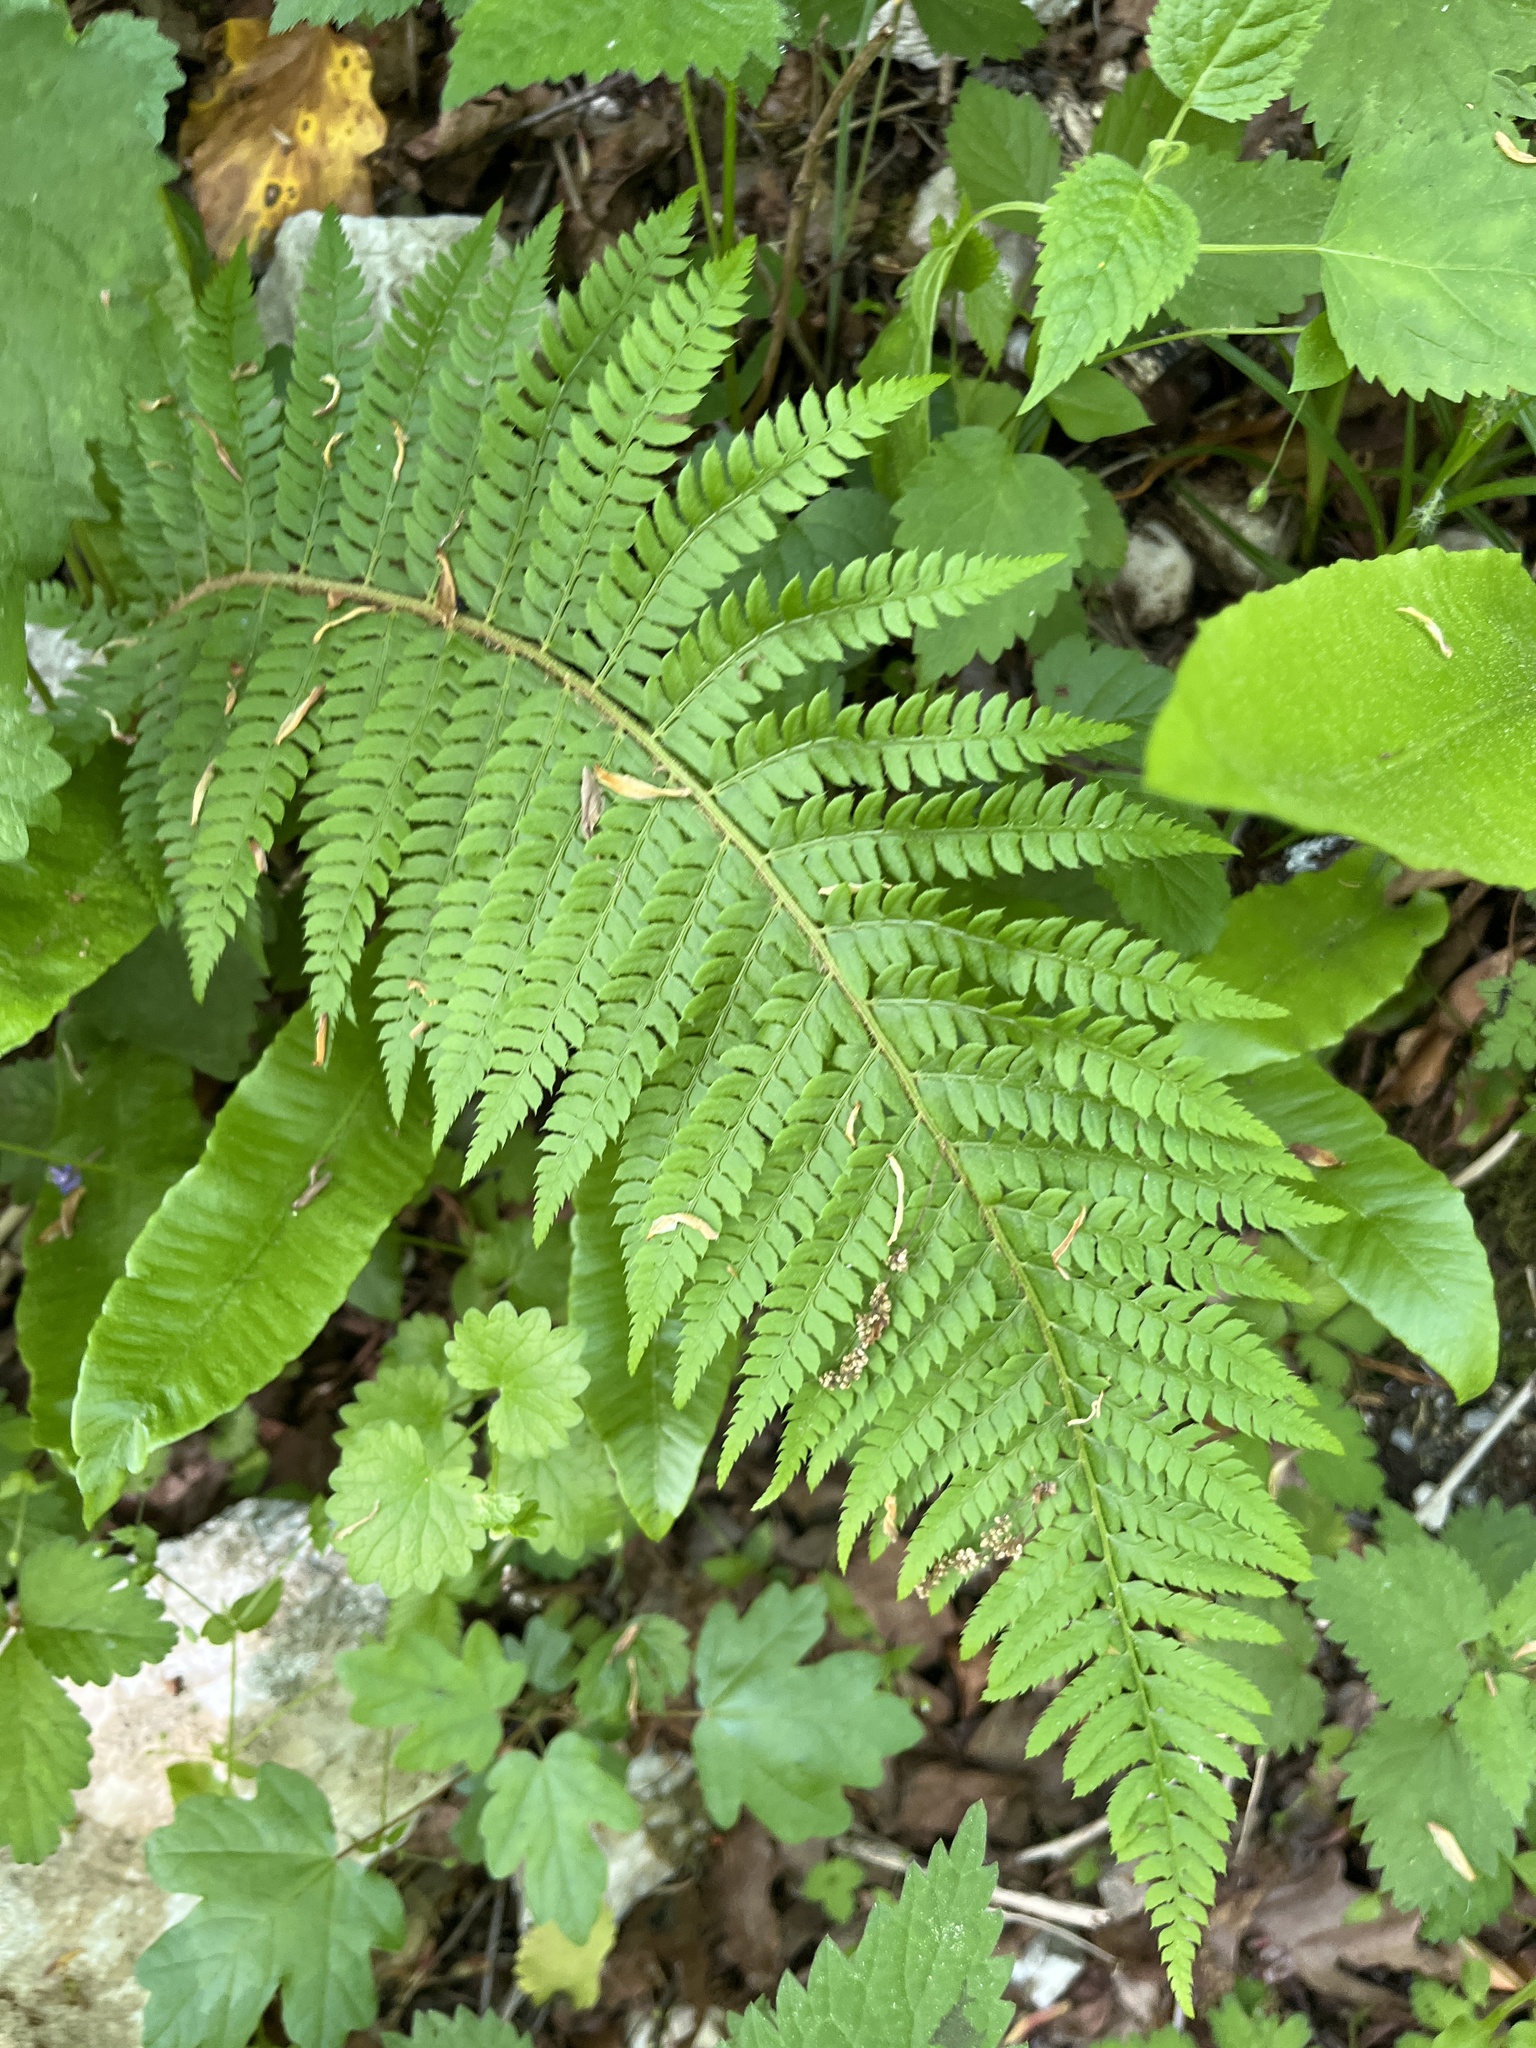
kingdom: Plantae
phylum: Tracheophyta
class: Polypodiopsida
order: Polypodiales
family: Dryopteridaceae
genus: Polystichum
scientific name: Polystichum setiferum
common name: Soft shield-fern
